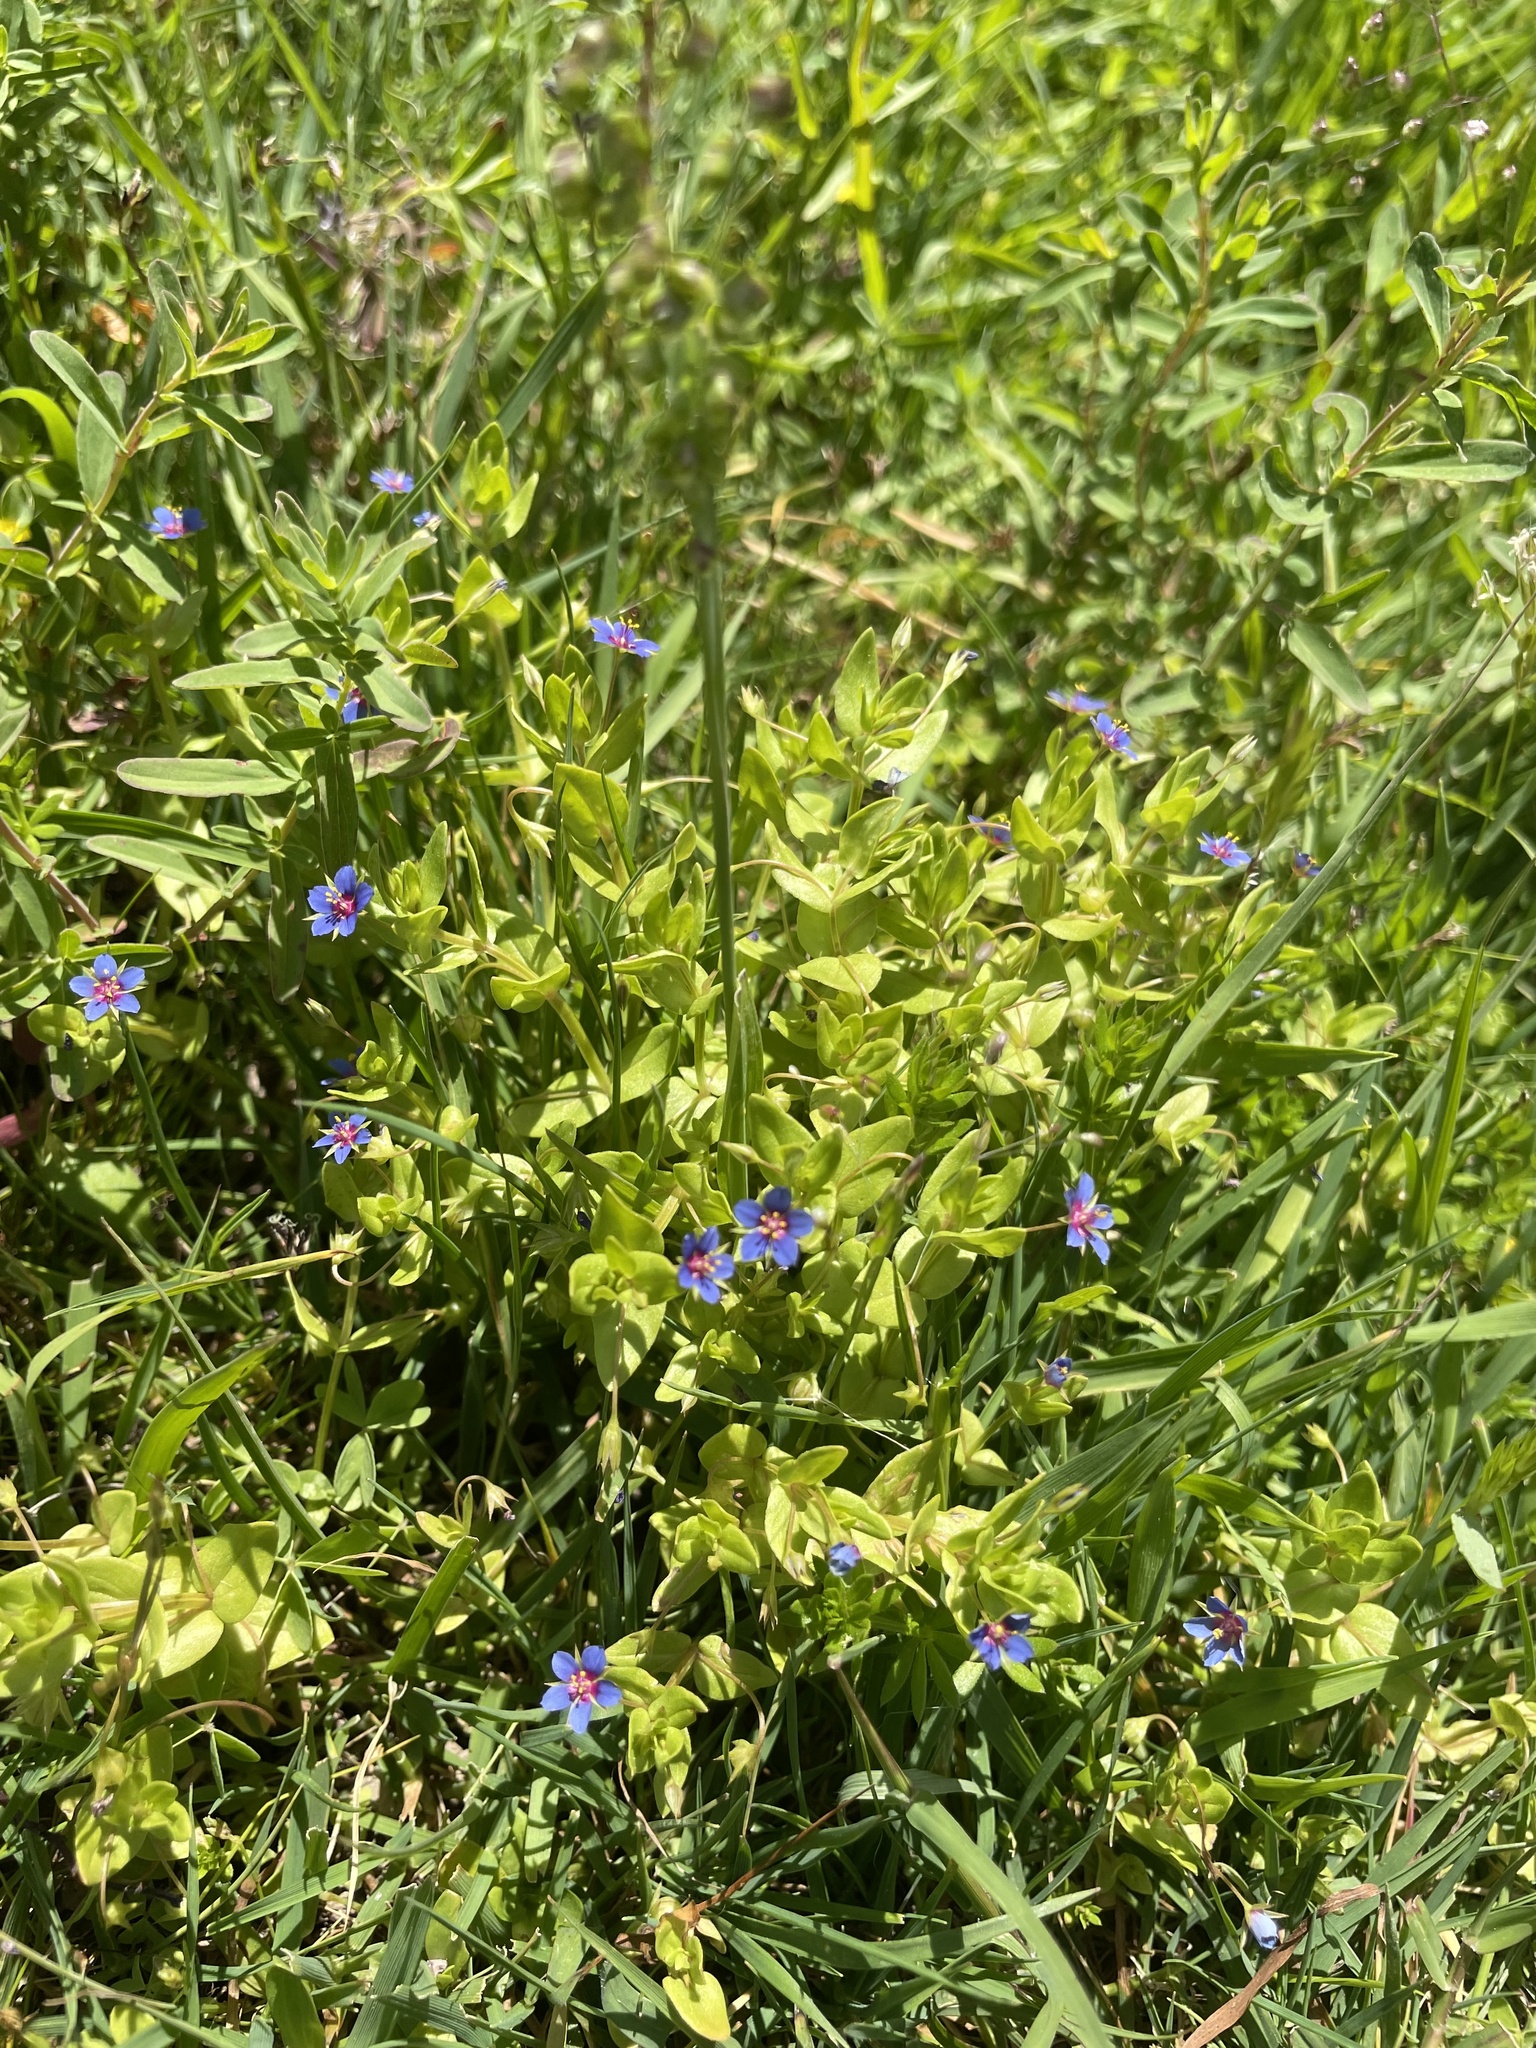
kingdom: Plantae
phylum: Tracheophyta
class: Magnoliopsida
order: Ericales
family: Primulaceae
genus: Lysimachia
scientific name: Lysimachia loeflingii
